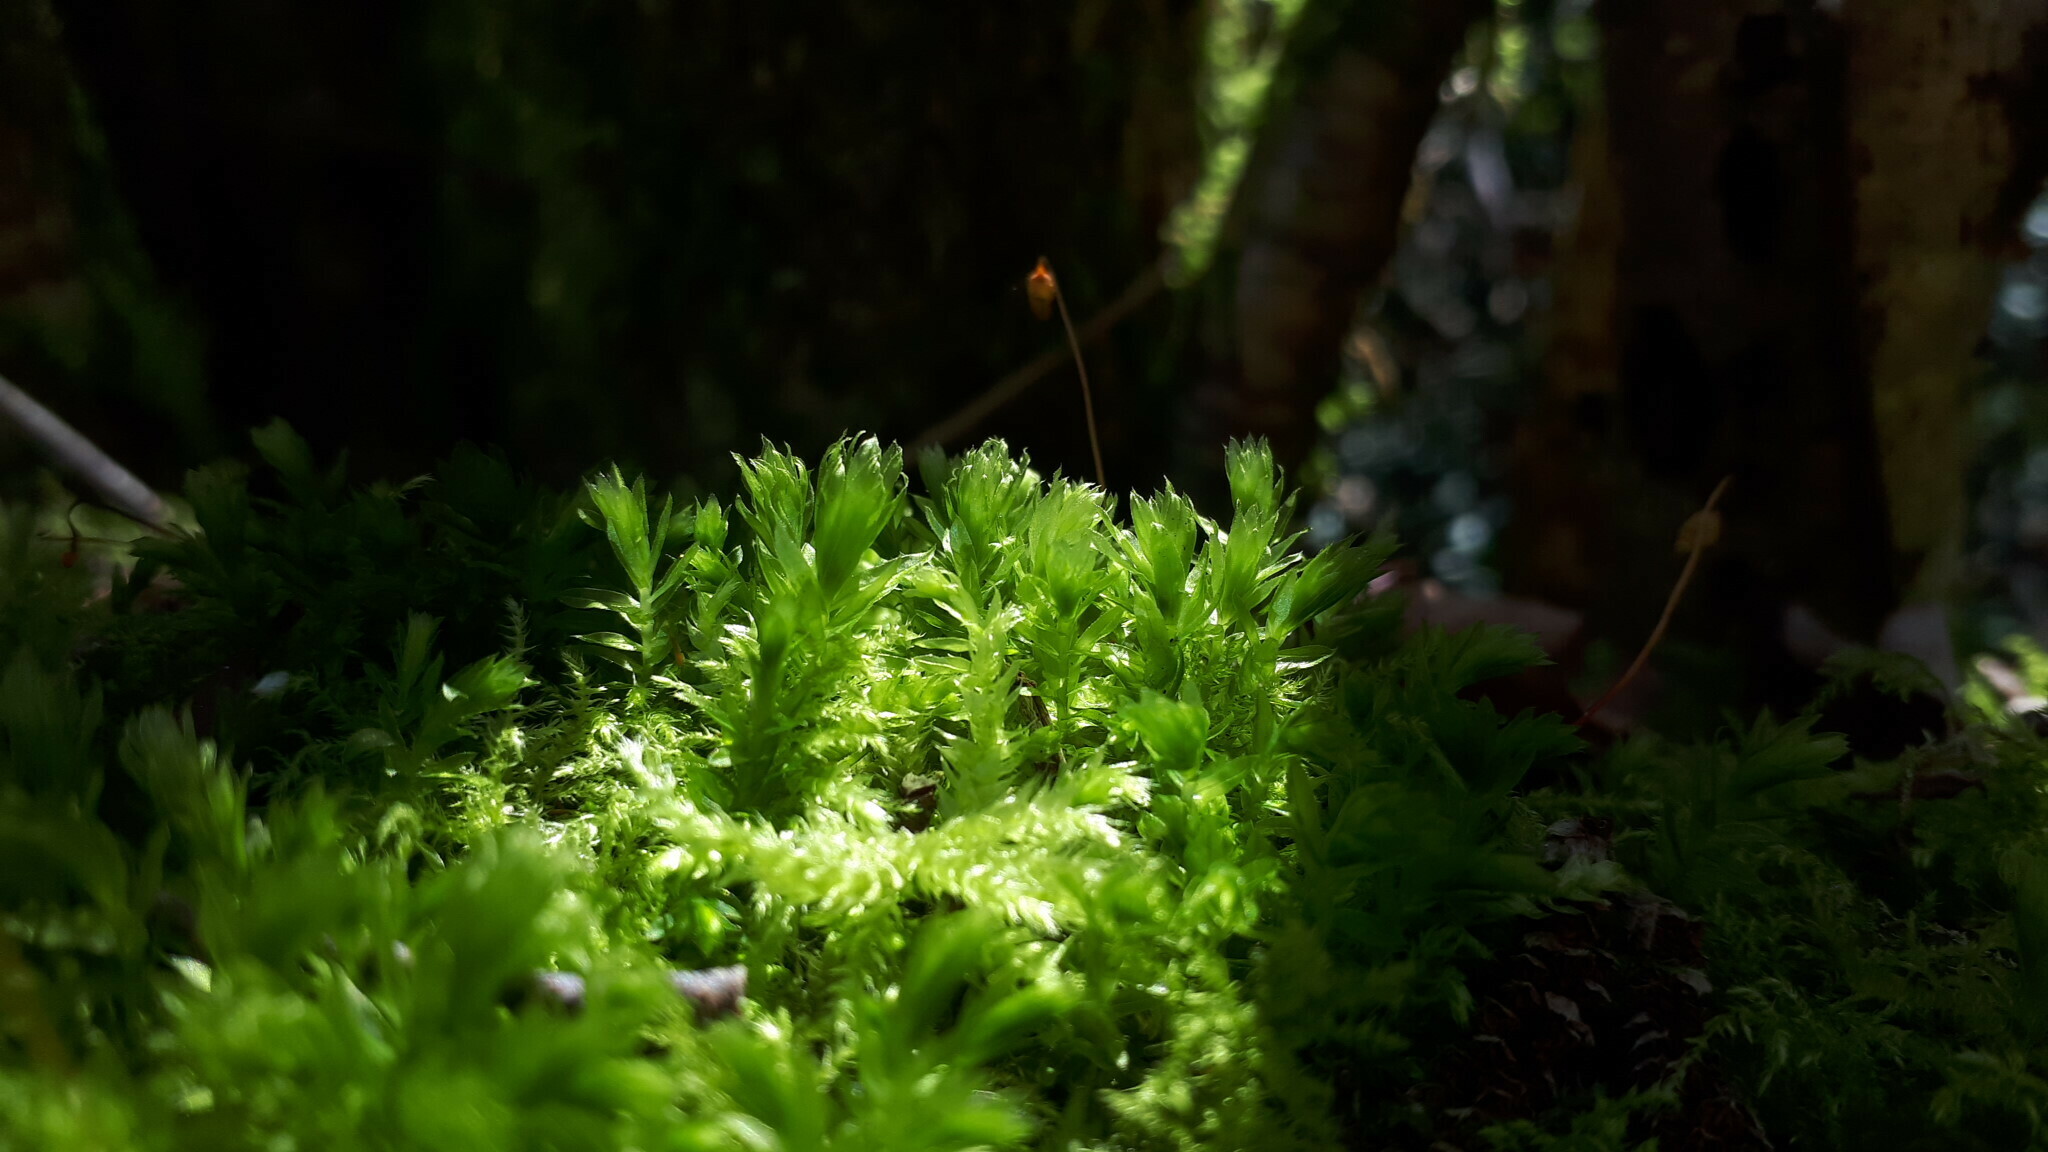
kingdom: Plantae
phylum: Bryophyta
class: Bryopsida
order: Bryales
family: Mniaceae
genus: Mnium
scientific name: Mnium hornum
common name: Swan's-neck leafy moss
